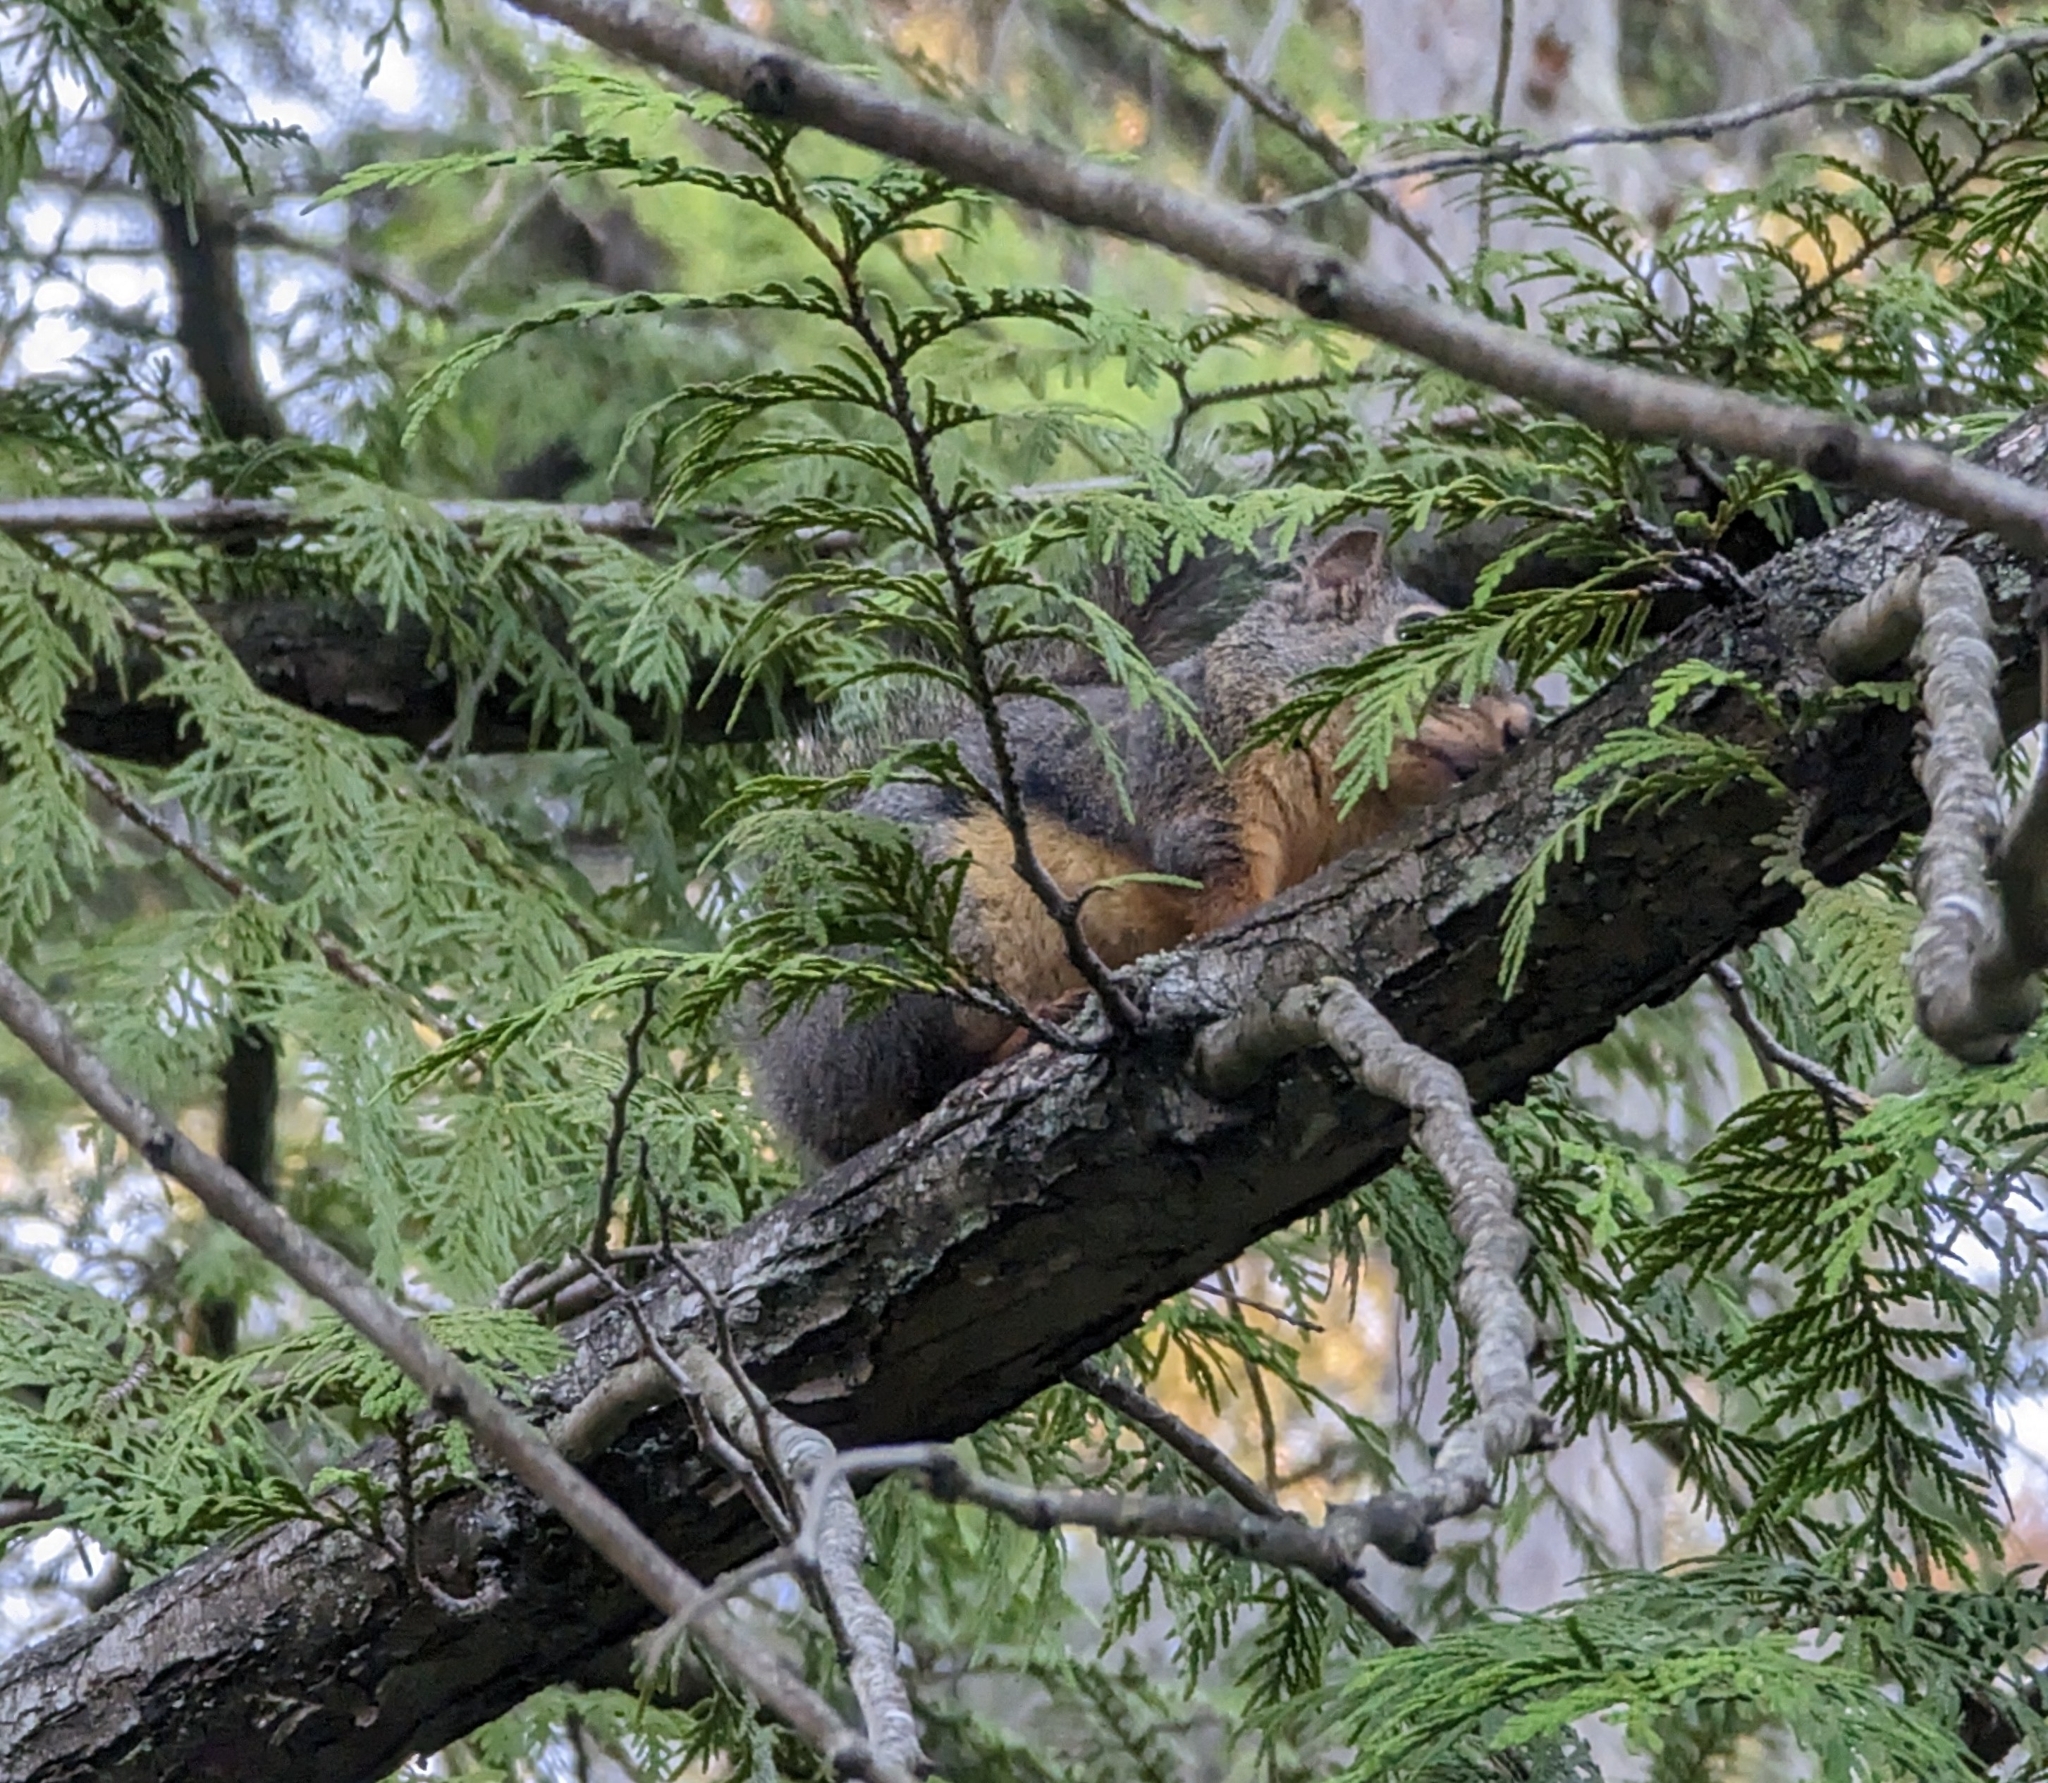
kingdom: Animalia
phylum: Chordata
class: Mammalia
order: Rodentia
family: Sciuridae
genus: Tamiasciurus
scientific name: Tamiasciurus douglasii
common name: Douglas's squirrel
